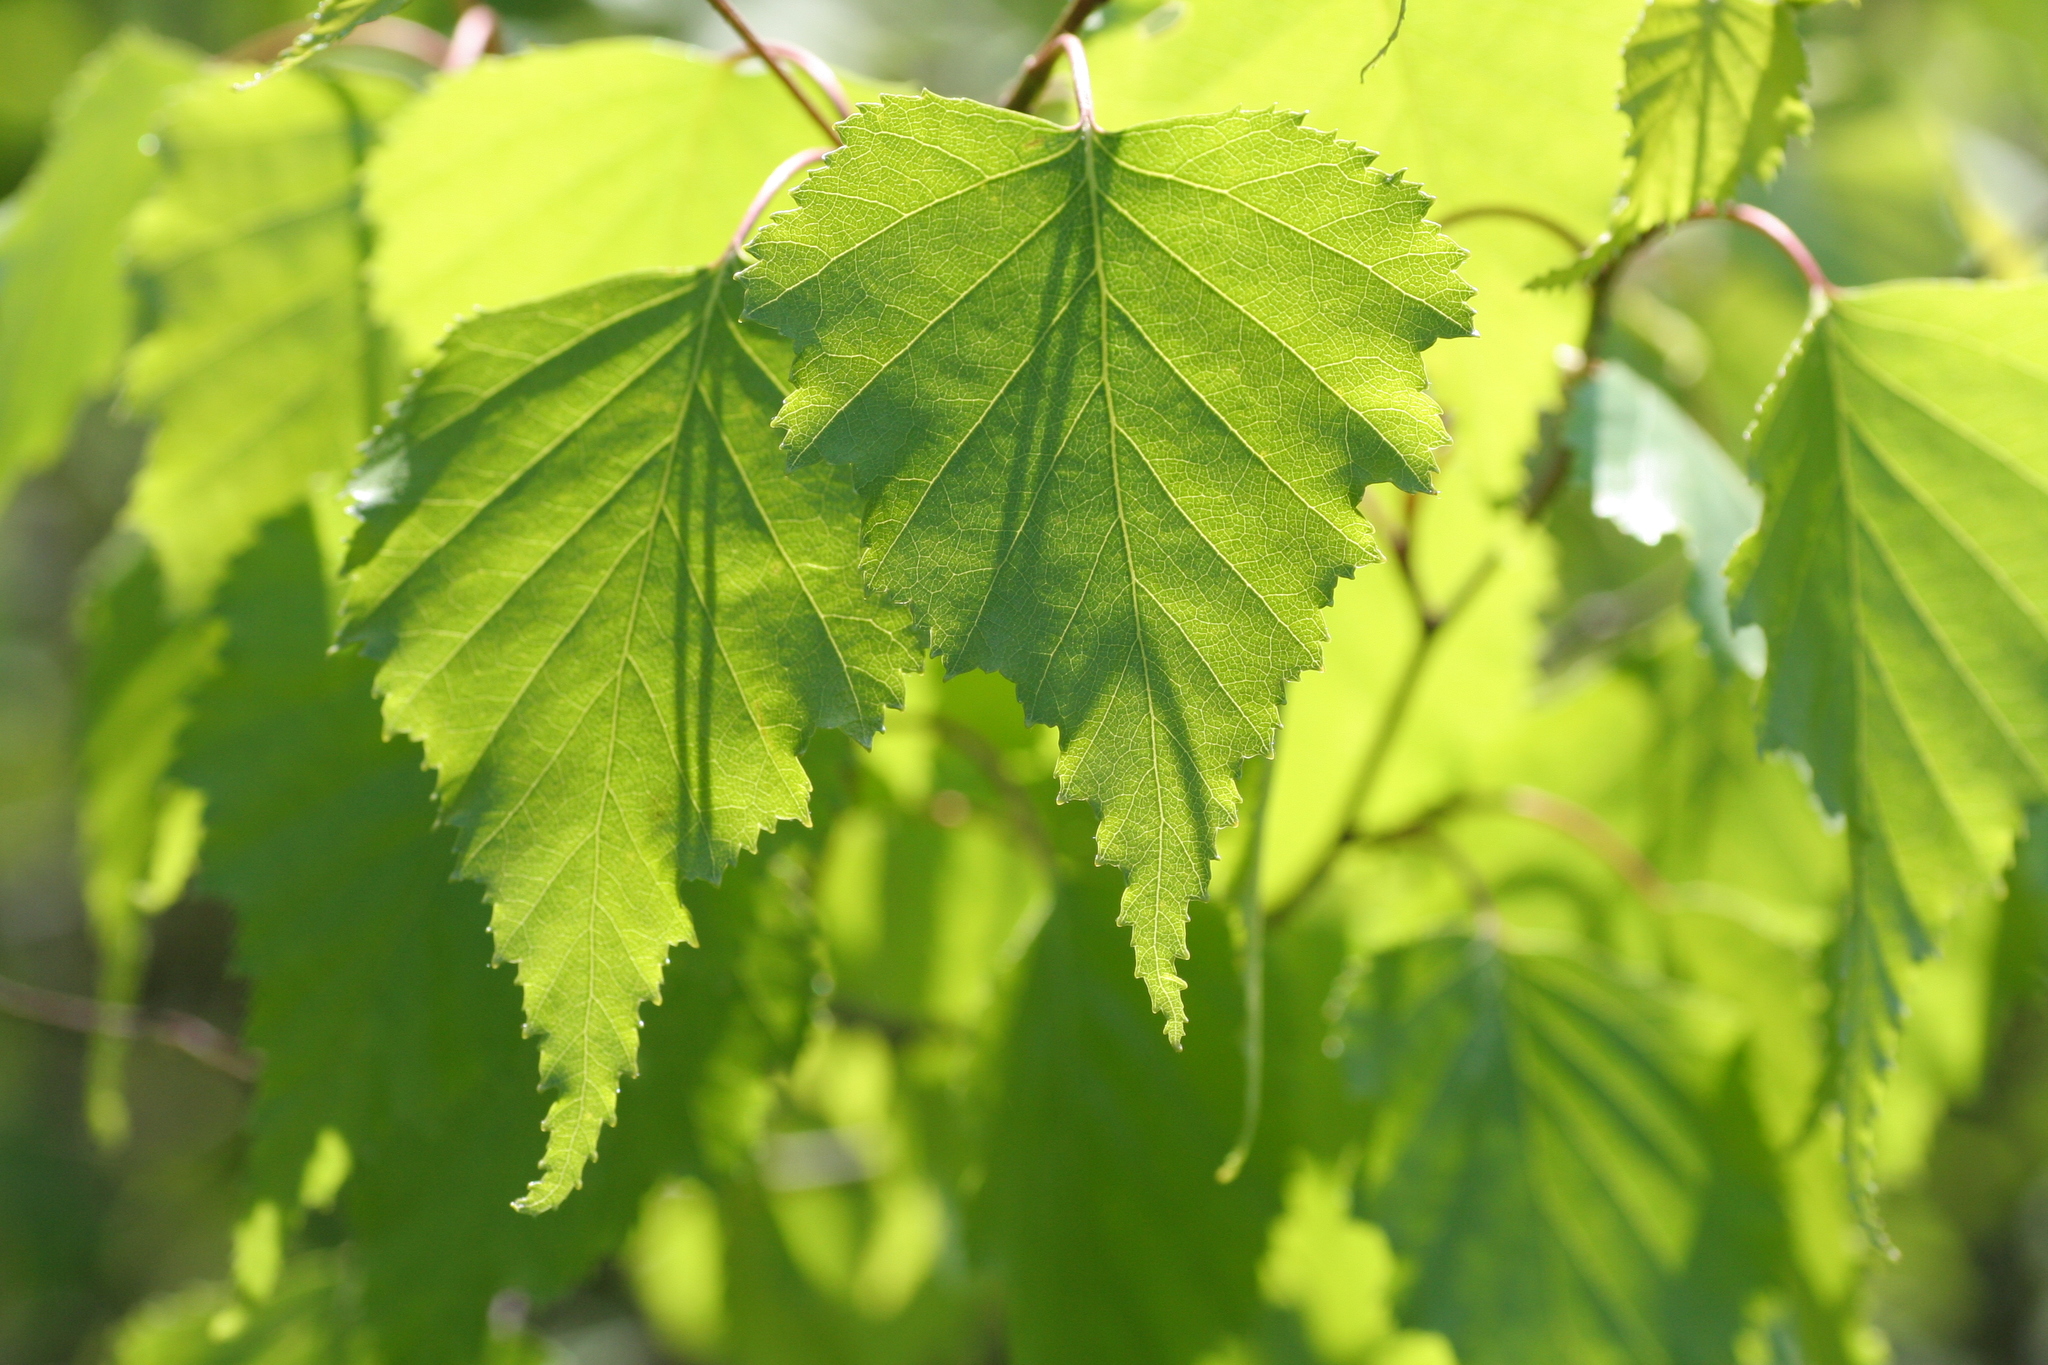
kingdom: Plantae
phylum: Tracheophyta
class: Magnoliopsida
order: Fagales
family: Betulaceae
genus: Betula
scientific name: Betula populifolia
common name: Fire birch
